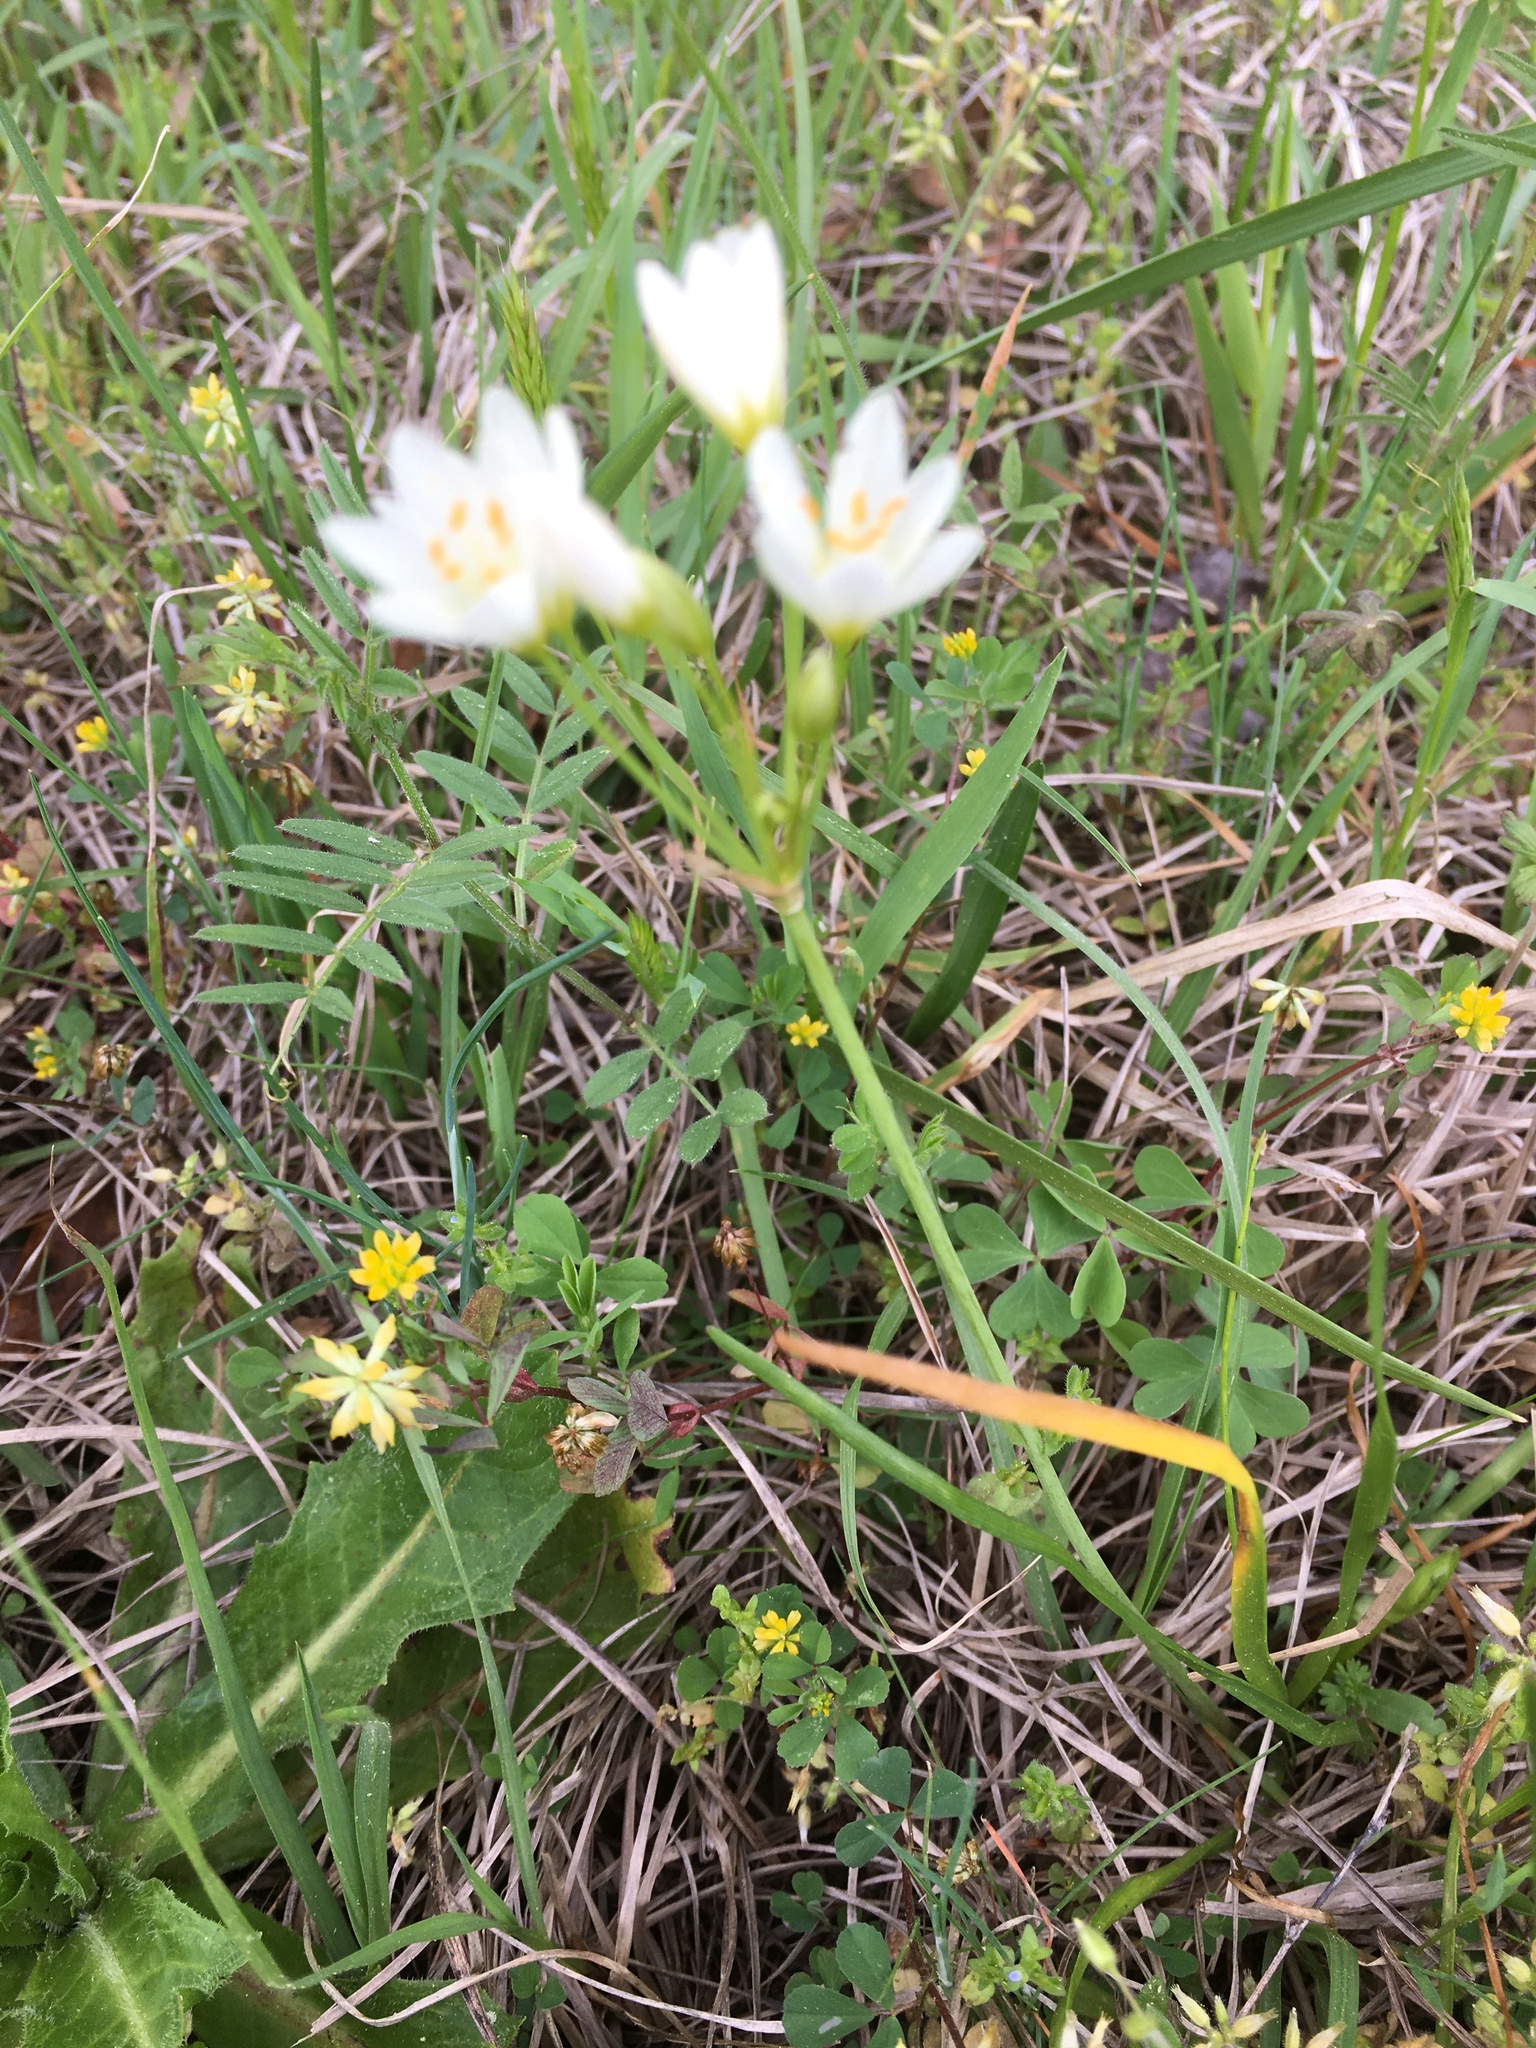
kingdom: Plantae
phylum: Tracheophyta
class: Liliopsida
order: Asparagales
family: Amaryllidaceae
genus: Nothoscordum
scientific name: Nothoscordum bivalve
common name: Crow-poison
